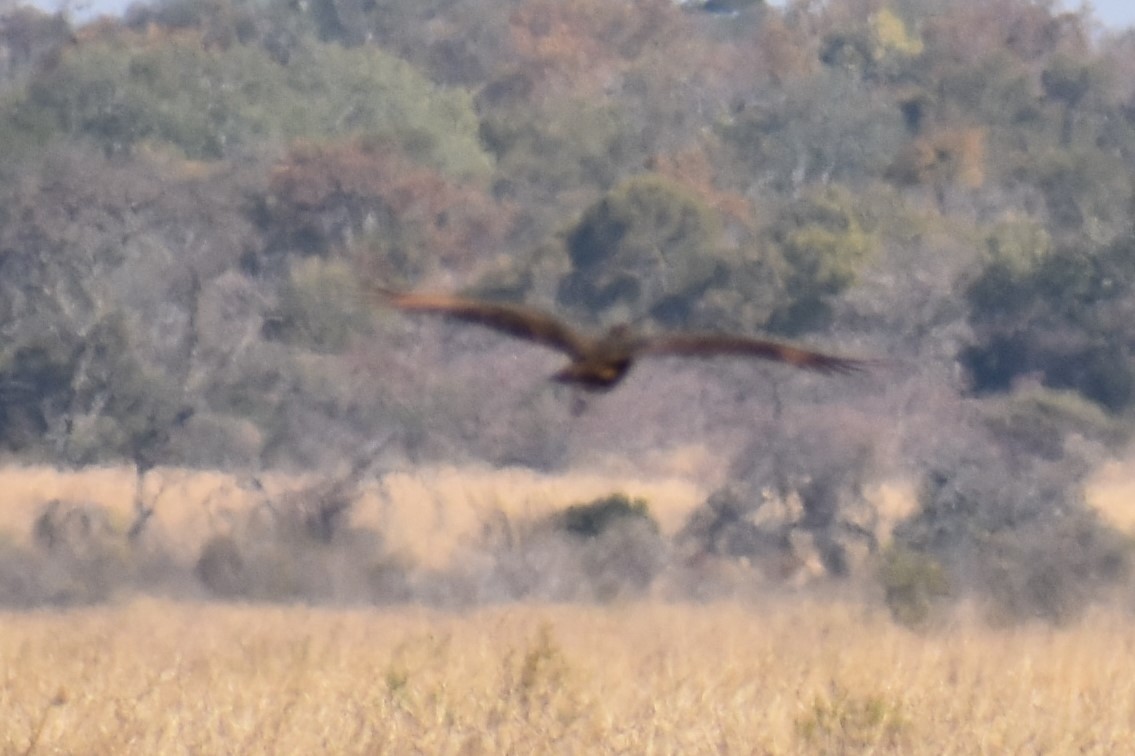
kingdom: Animalia
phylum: Chordata
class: Aves
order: Pelecaniformes
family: Scopidae
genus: Scopus
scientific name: Scopus umbretta
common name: Hamerkop
